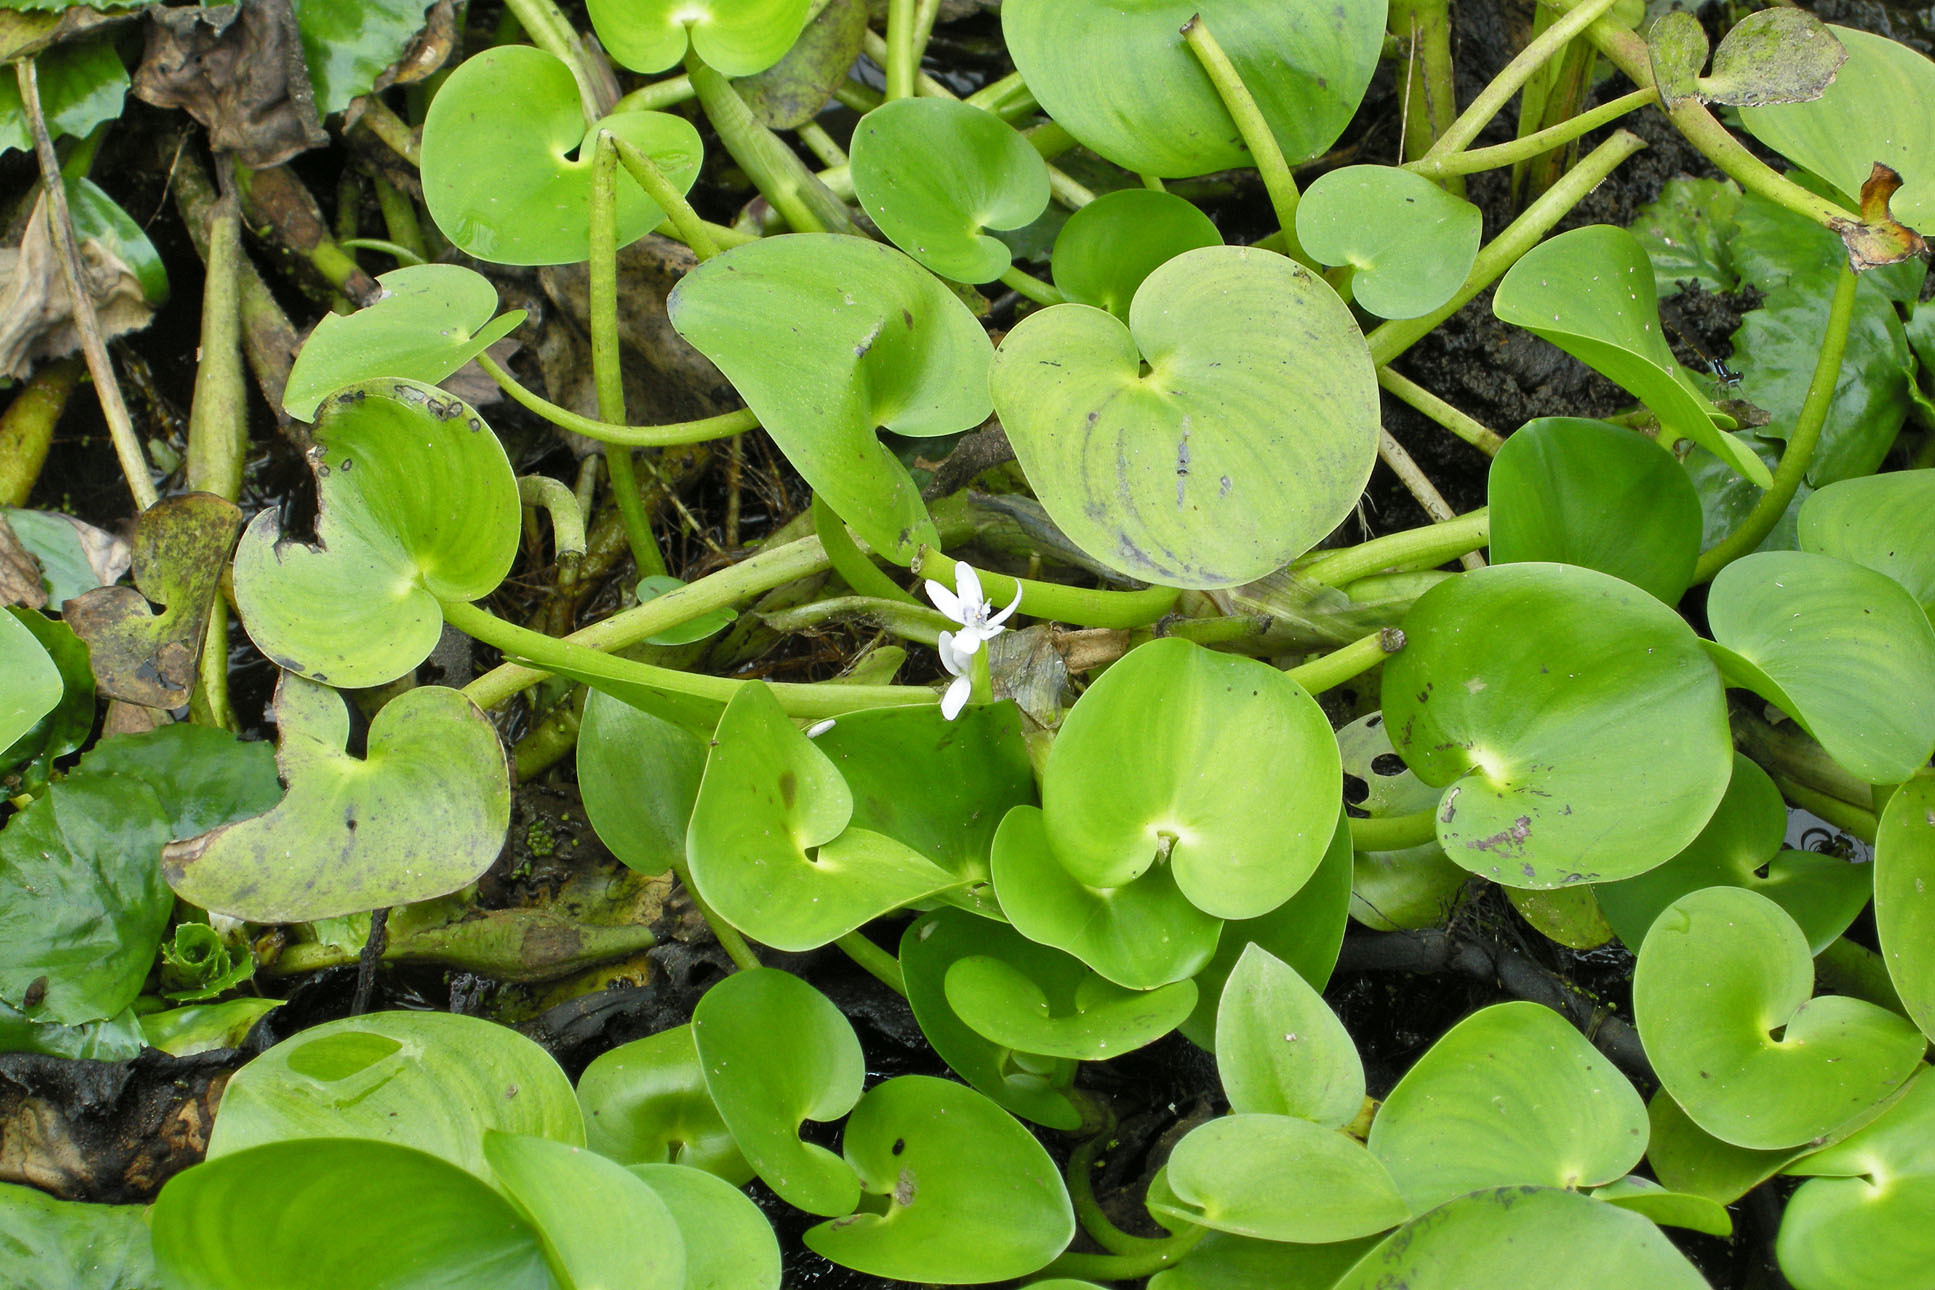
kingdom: Plantae
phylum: Tracheophyta
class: Liliopsida
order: Commelinales
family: Pontederiaceae
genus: Heteranthera
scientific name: Heteranthera pauciflora
